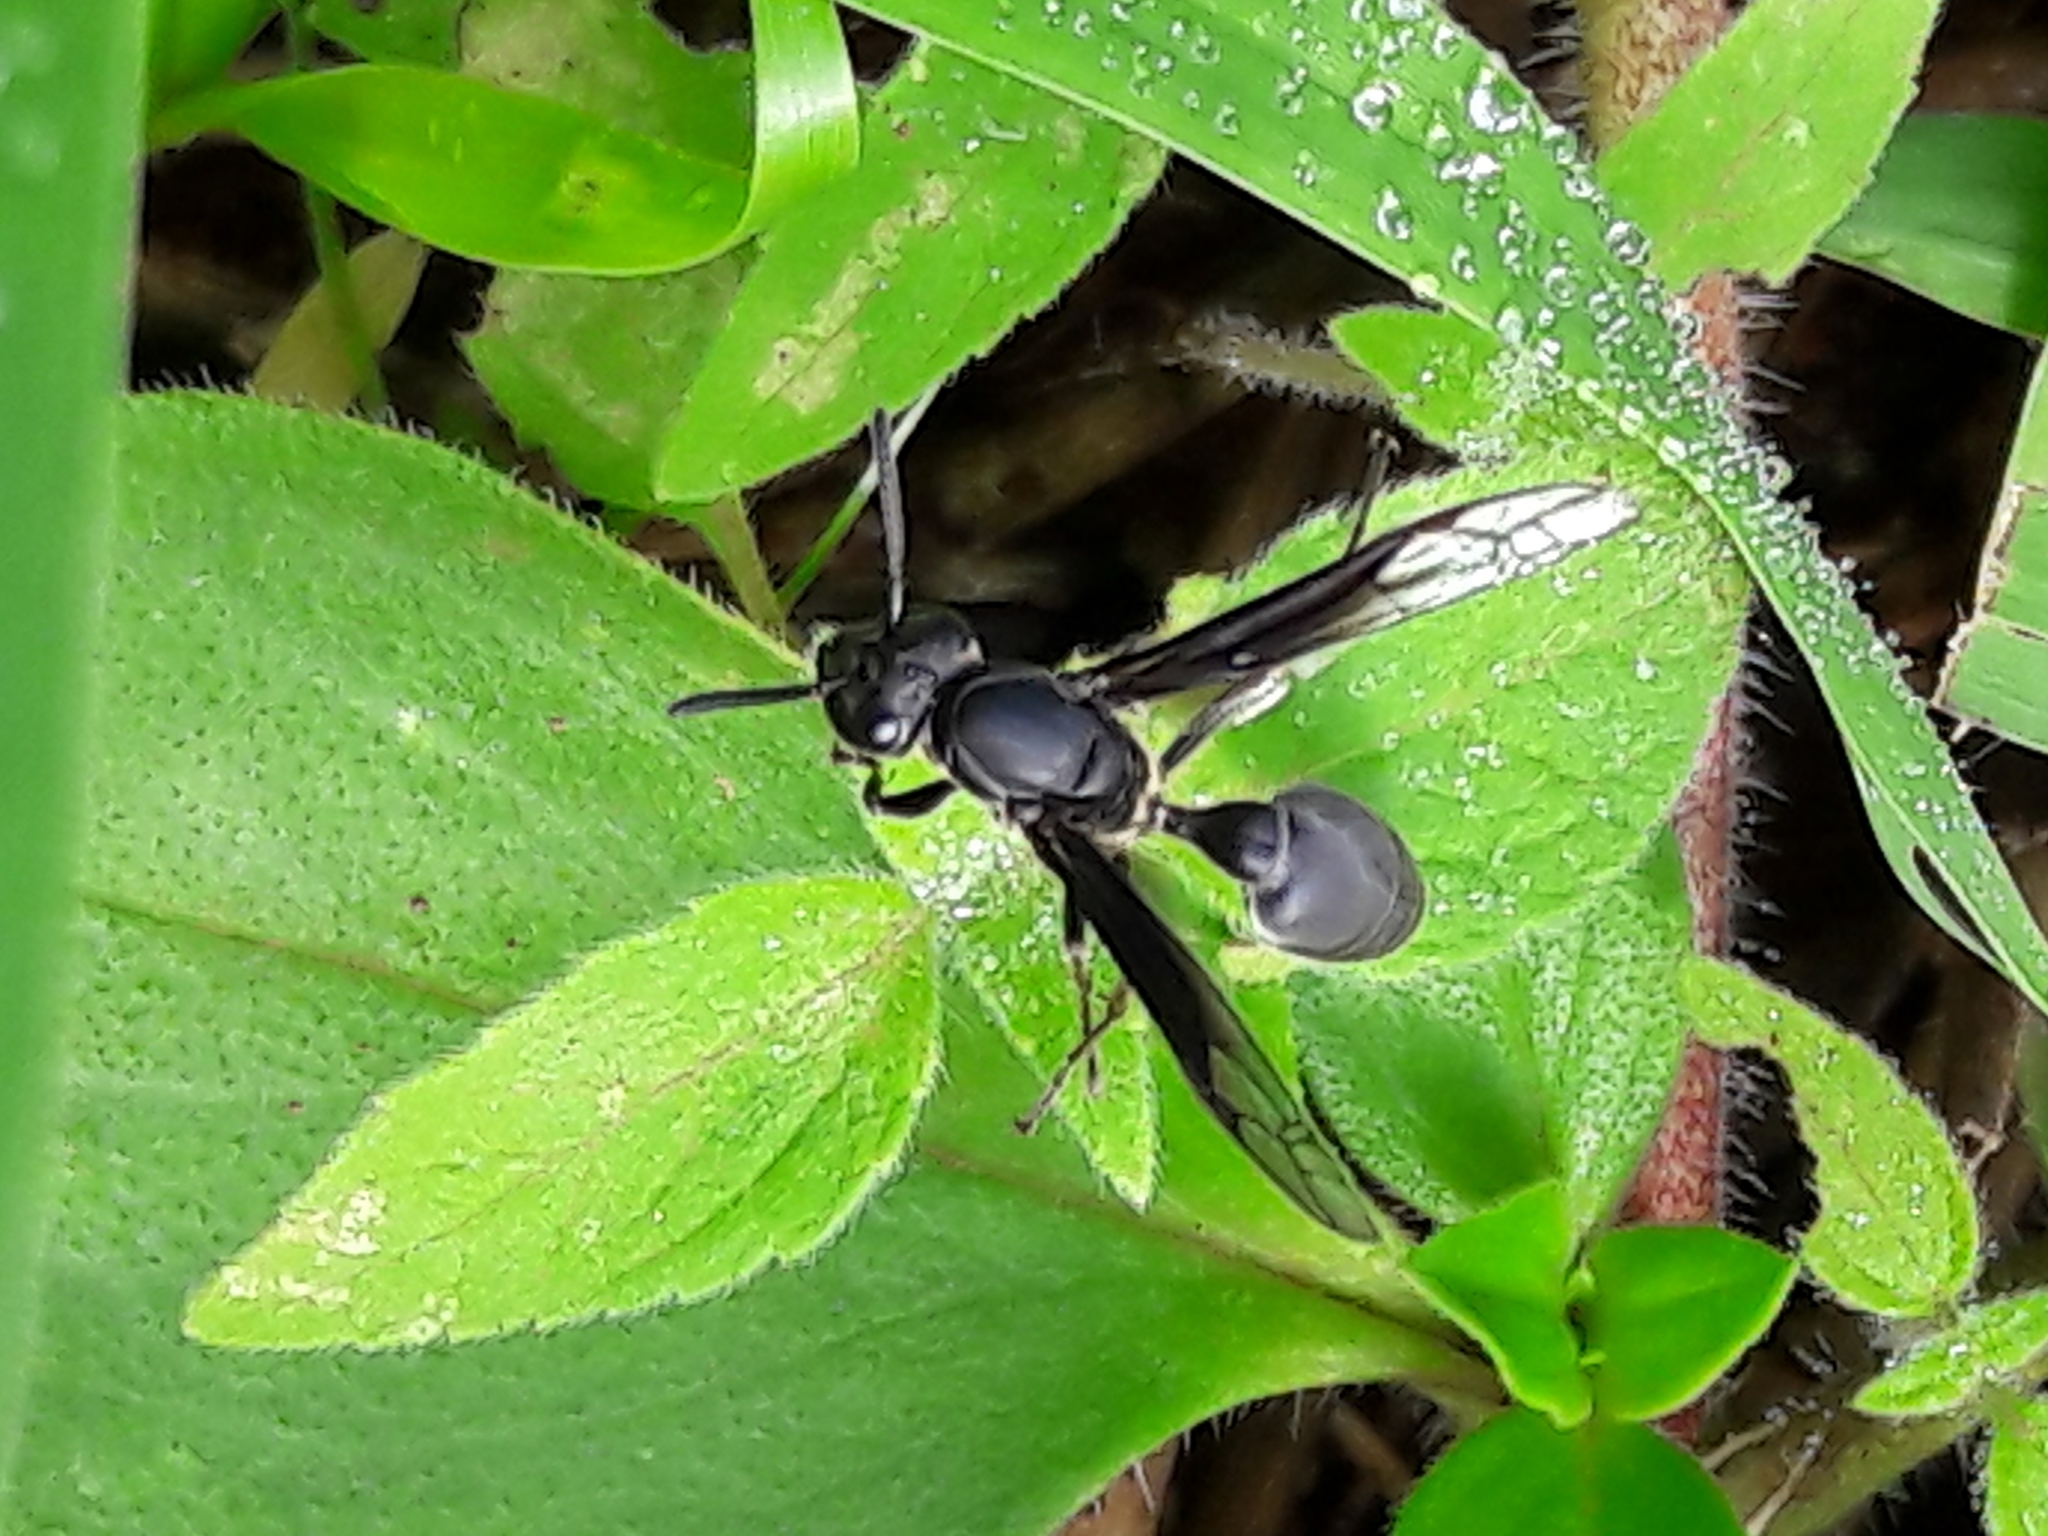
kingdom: Animalia
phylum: Arthropoda
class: Insecta
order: Hymenoptera
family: Eumenidae
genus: Polybia
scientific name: Polybia ignobilis
